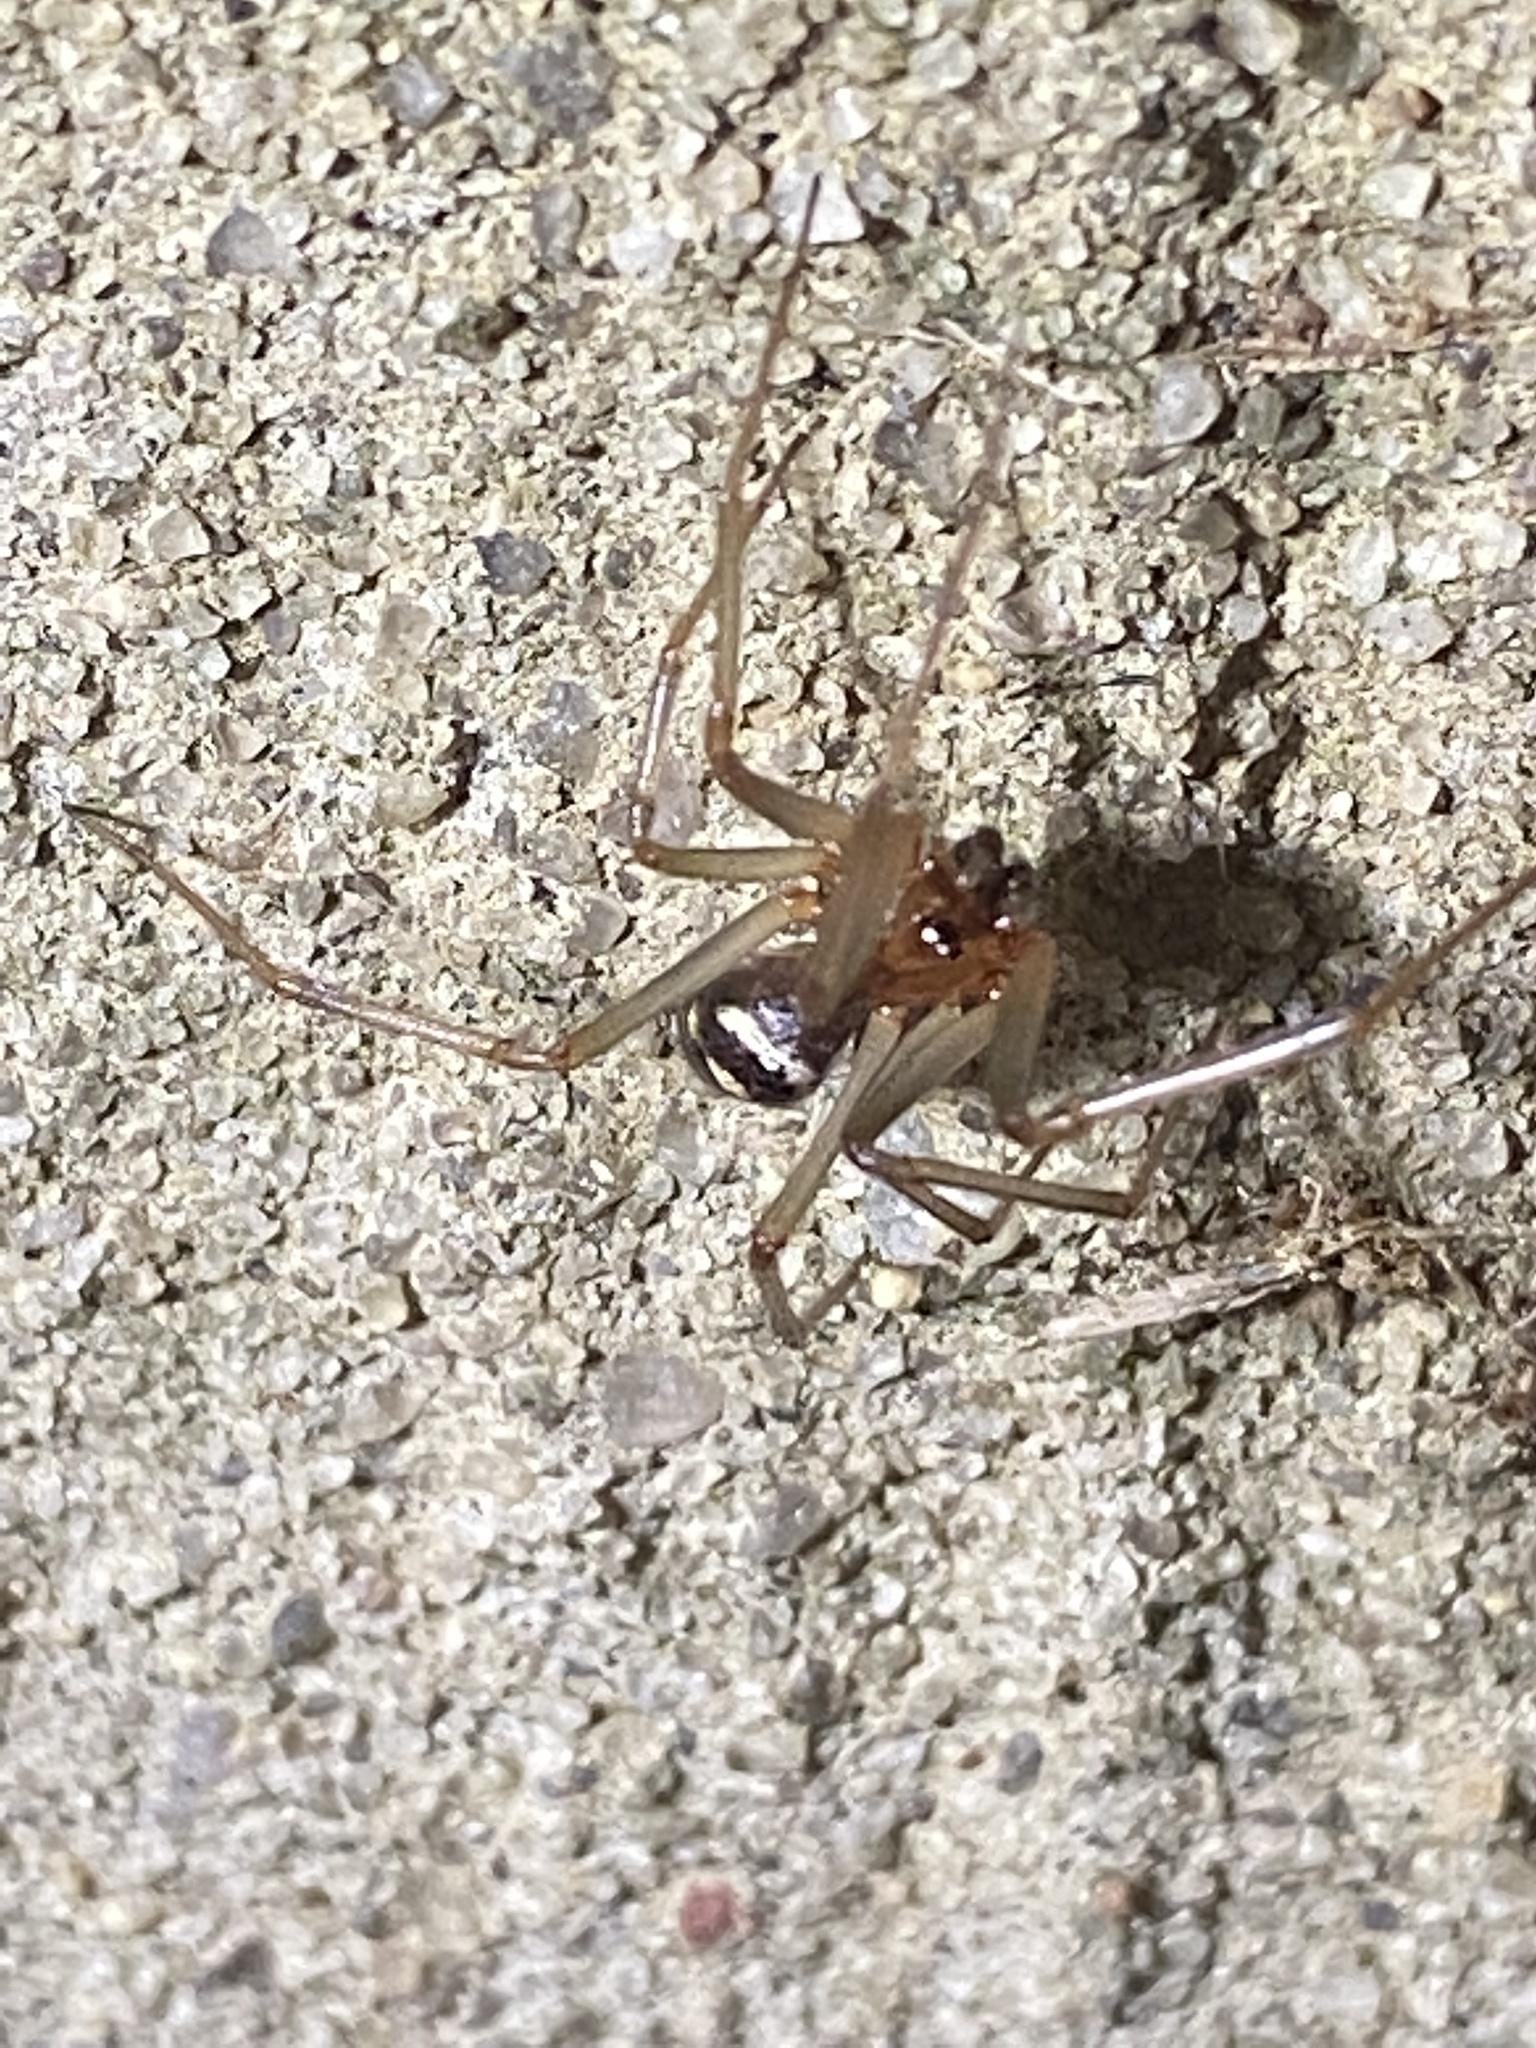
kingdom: Animalia
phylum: Arthropoda
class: Arachnida
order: Araneae
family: Theridiidae
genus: Steatoda
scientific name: Steatoda grossa
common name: False black widow
